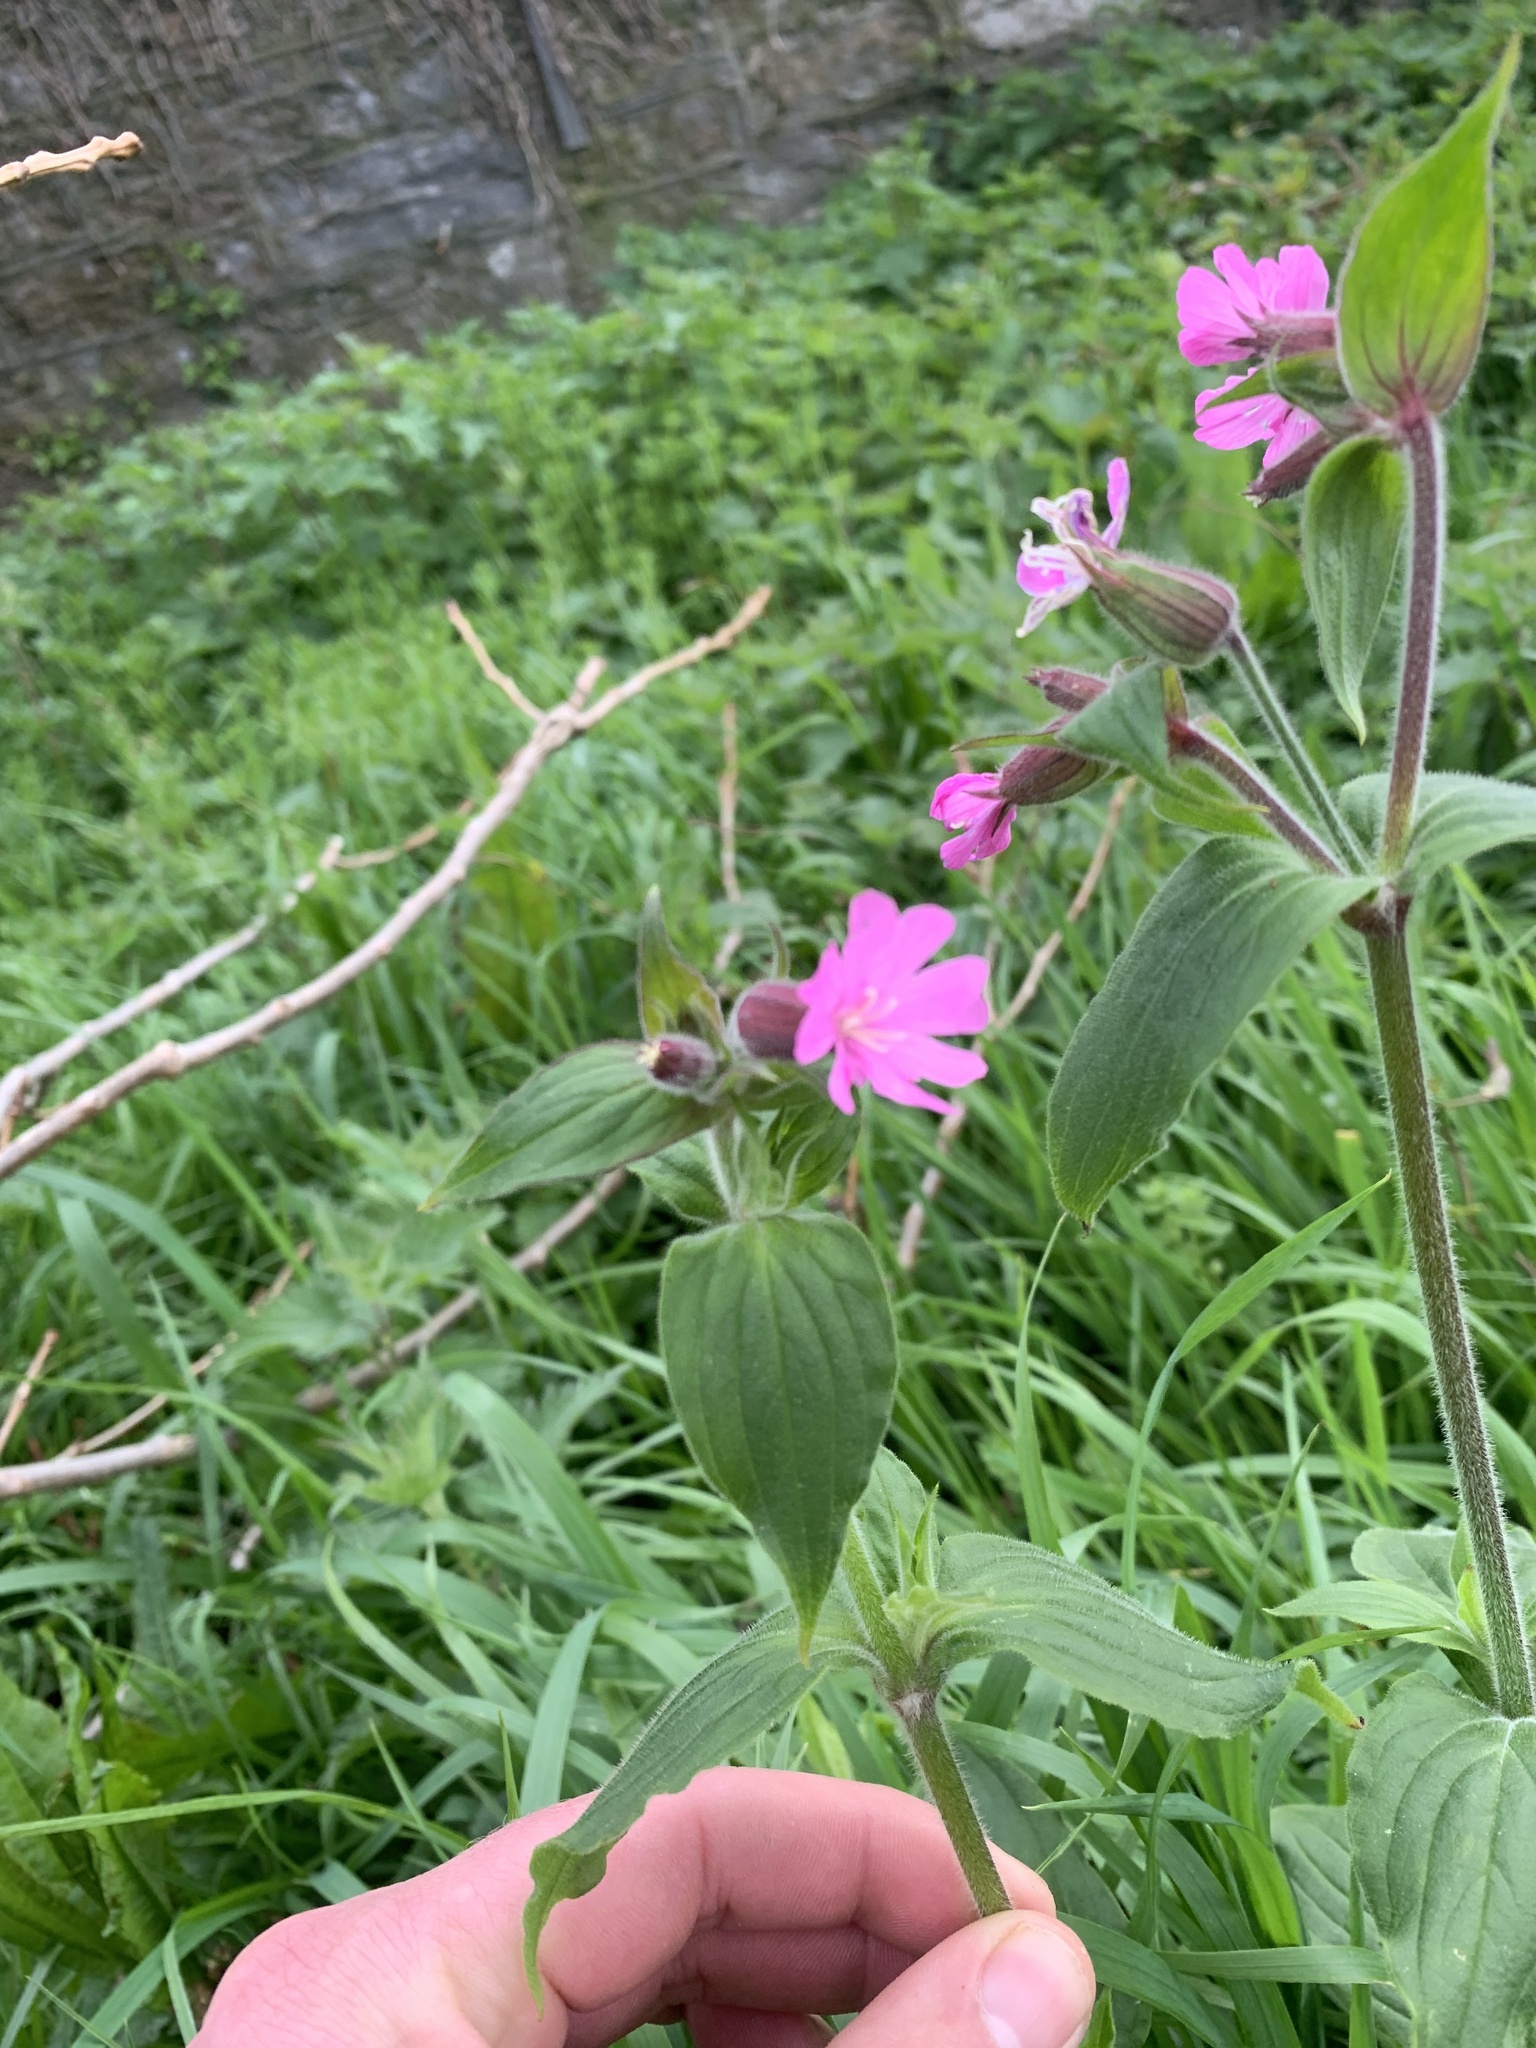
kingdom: Plantae
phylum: Tracheophyta
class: Magnoliopsida
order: Caryophyllales
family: Caryophyllaceae
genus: Silene
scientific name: Silene dioica
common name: Red campion
